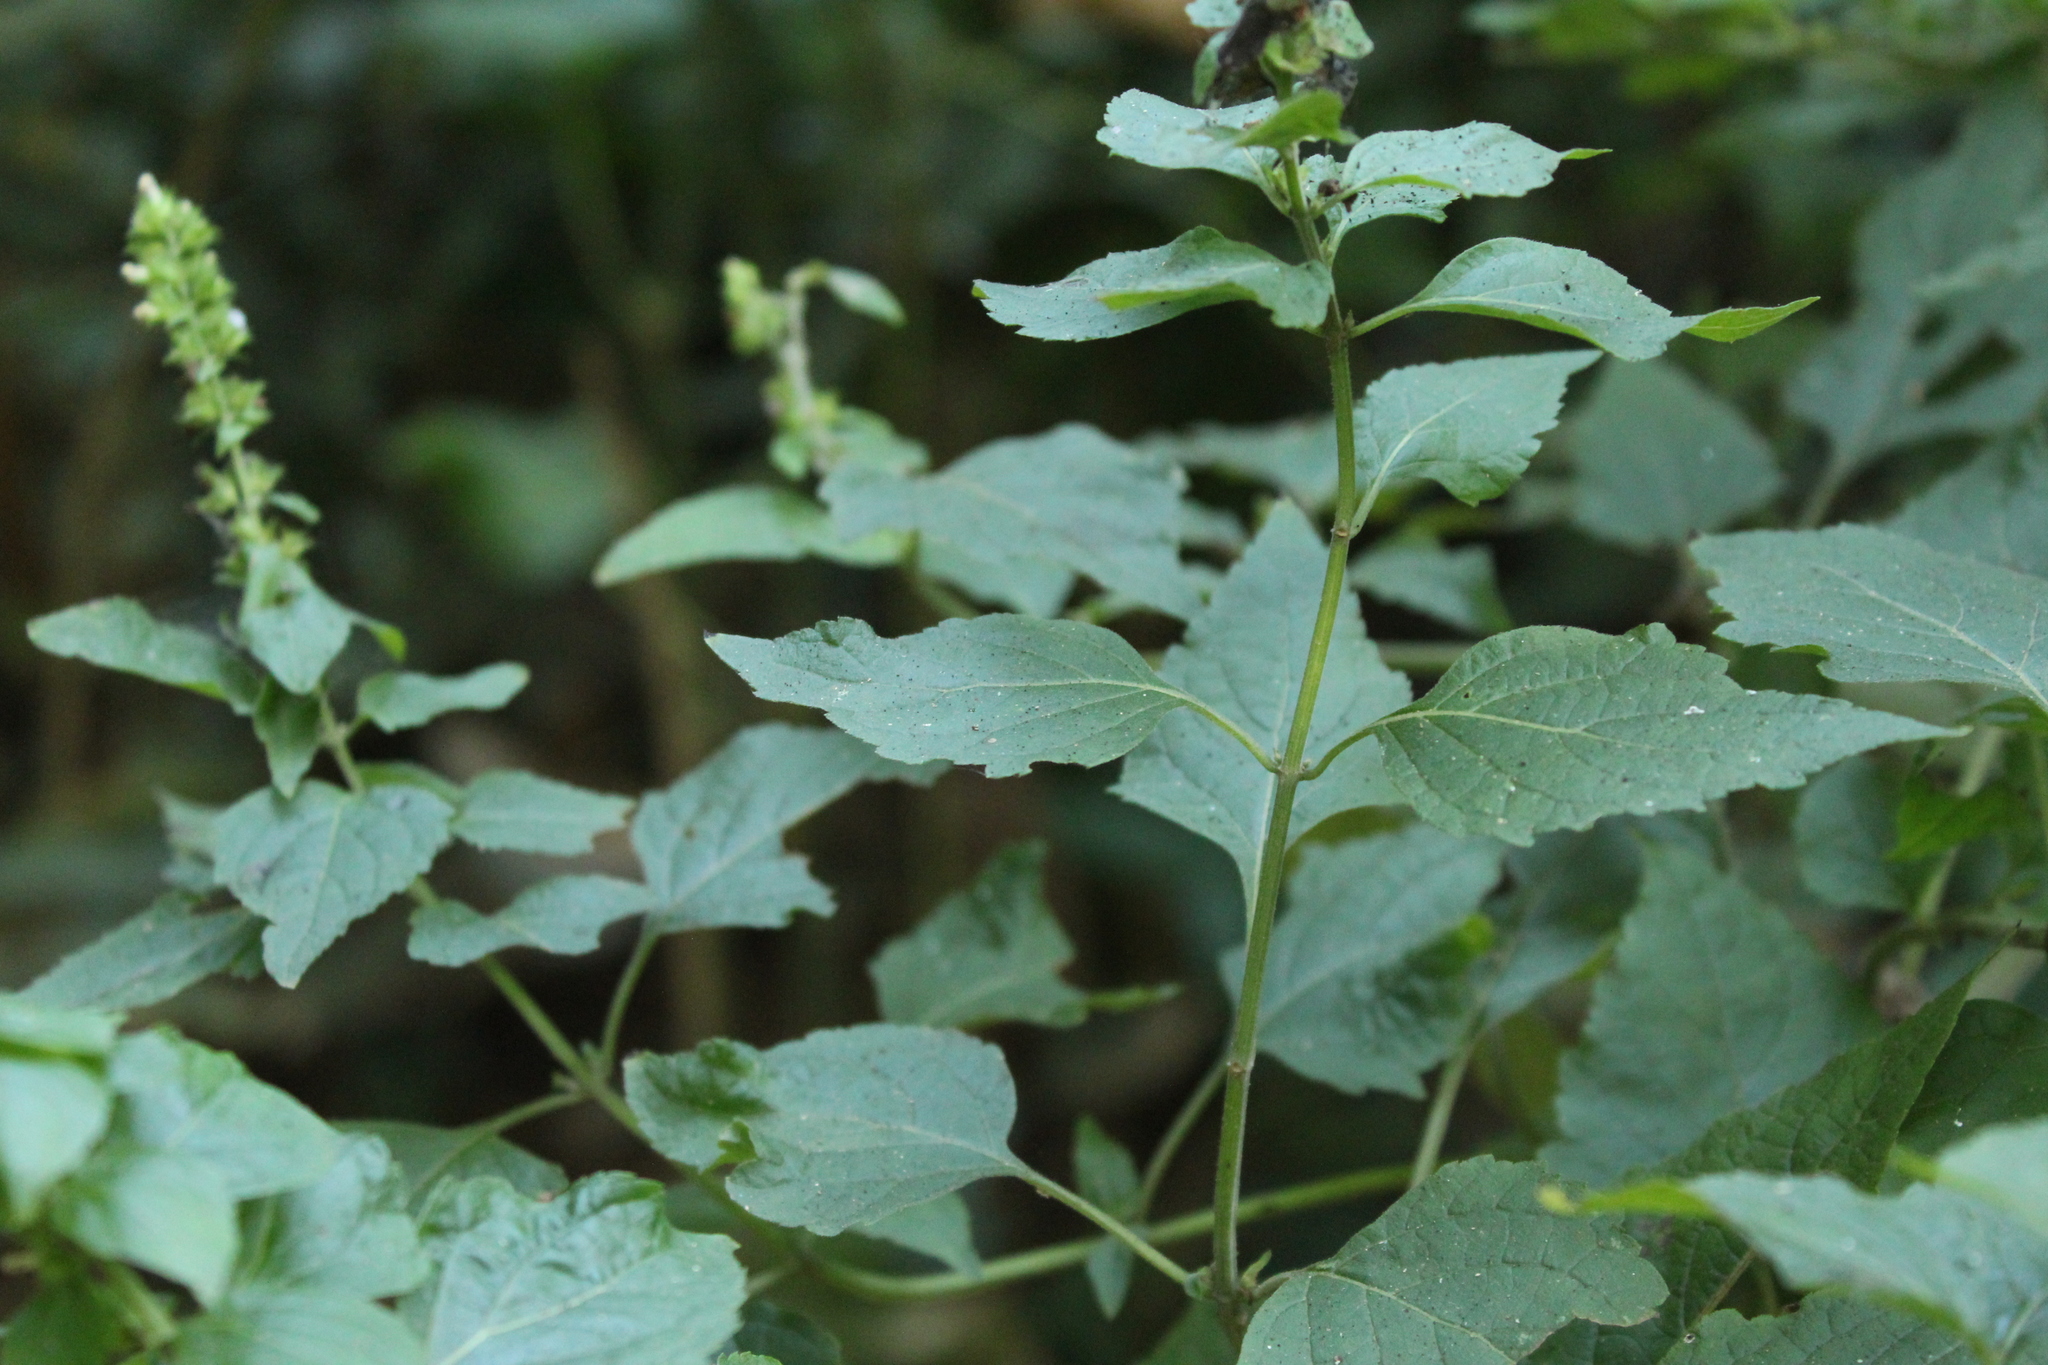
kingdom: Plantae
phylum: Tracheophyta
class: Magnoliopsida
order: Lamiales
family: Lamiaceae
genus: Cantinoa
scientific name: Cantinoa mutabilis
